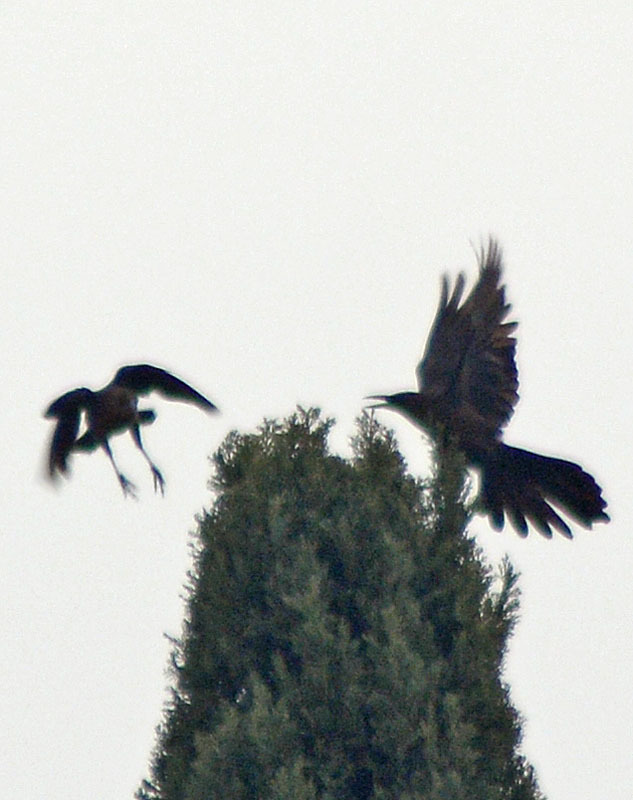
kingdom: Animalia
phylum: Chordata
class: Aves
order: Passeriformes
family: Icteridae
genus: Quiscalus
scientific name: Quiscalus mexicanus
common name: Great-tailed grackle
